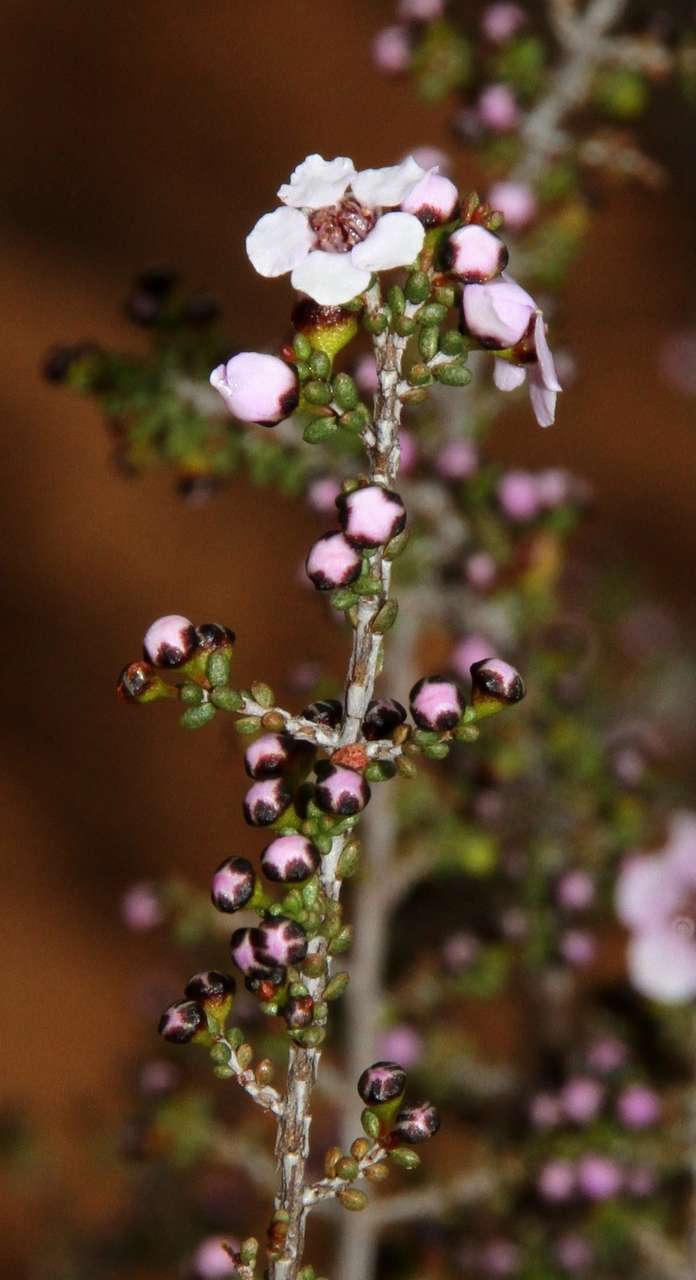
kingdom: Plantae
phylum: Tracheophyta
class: Magnoliopsida
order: Myrtales
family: Myrtaceae
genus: Rinzia
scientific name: Rinzia orientalis
